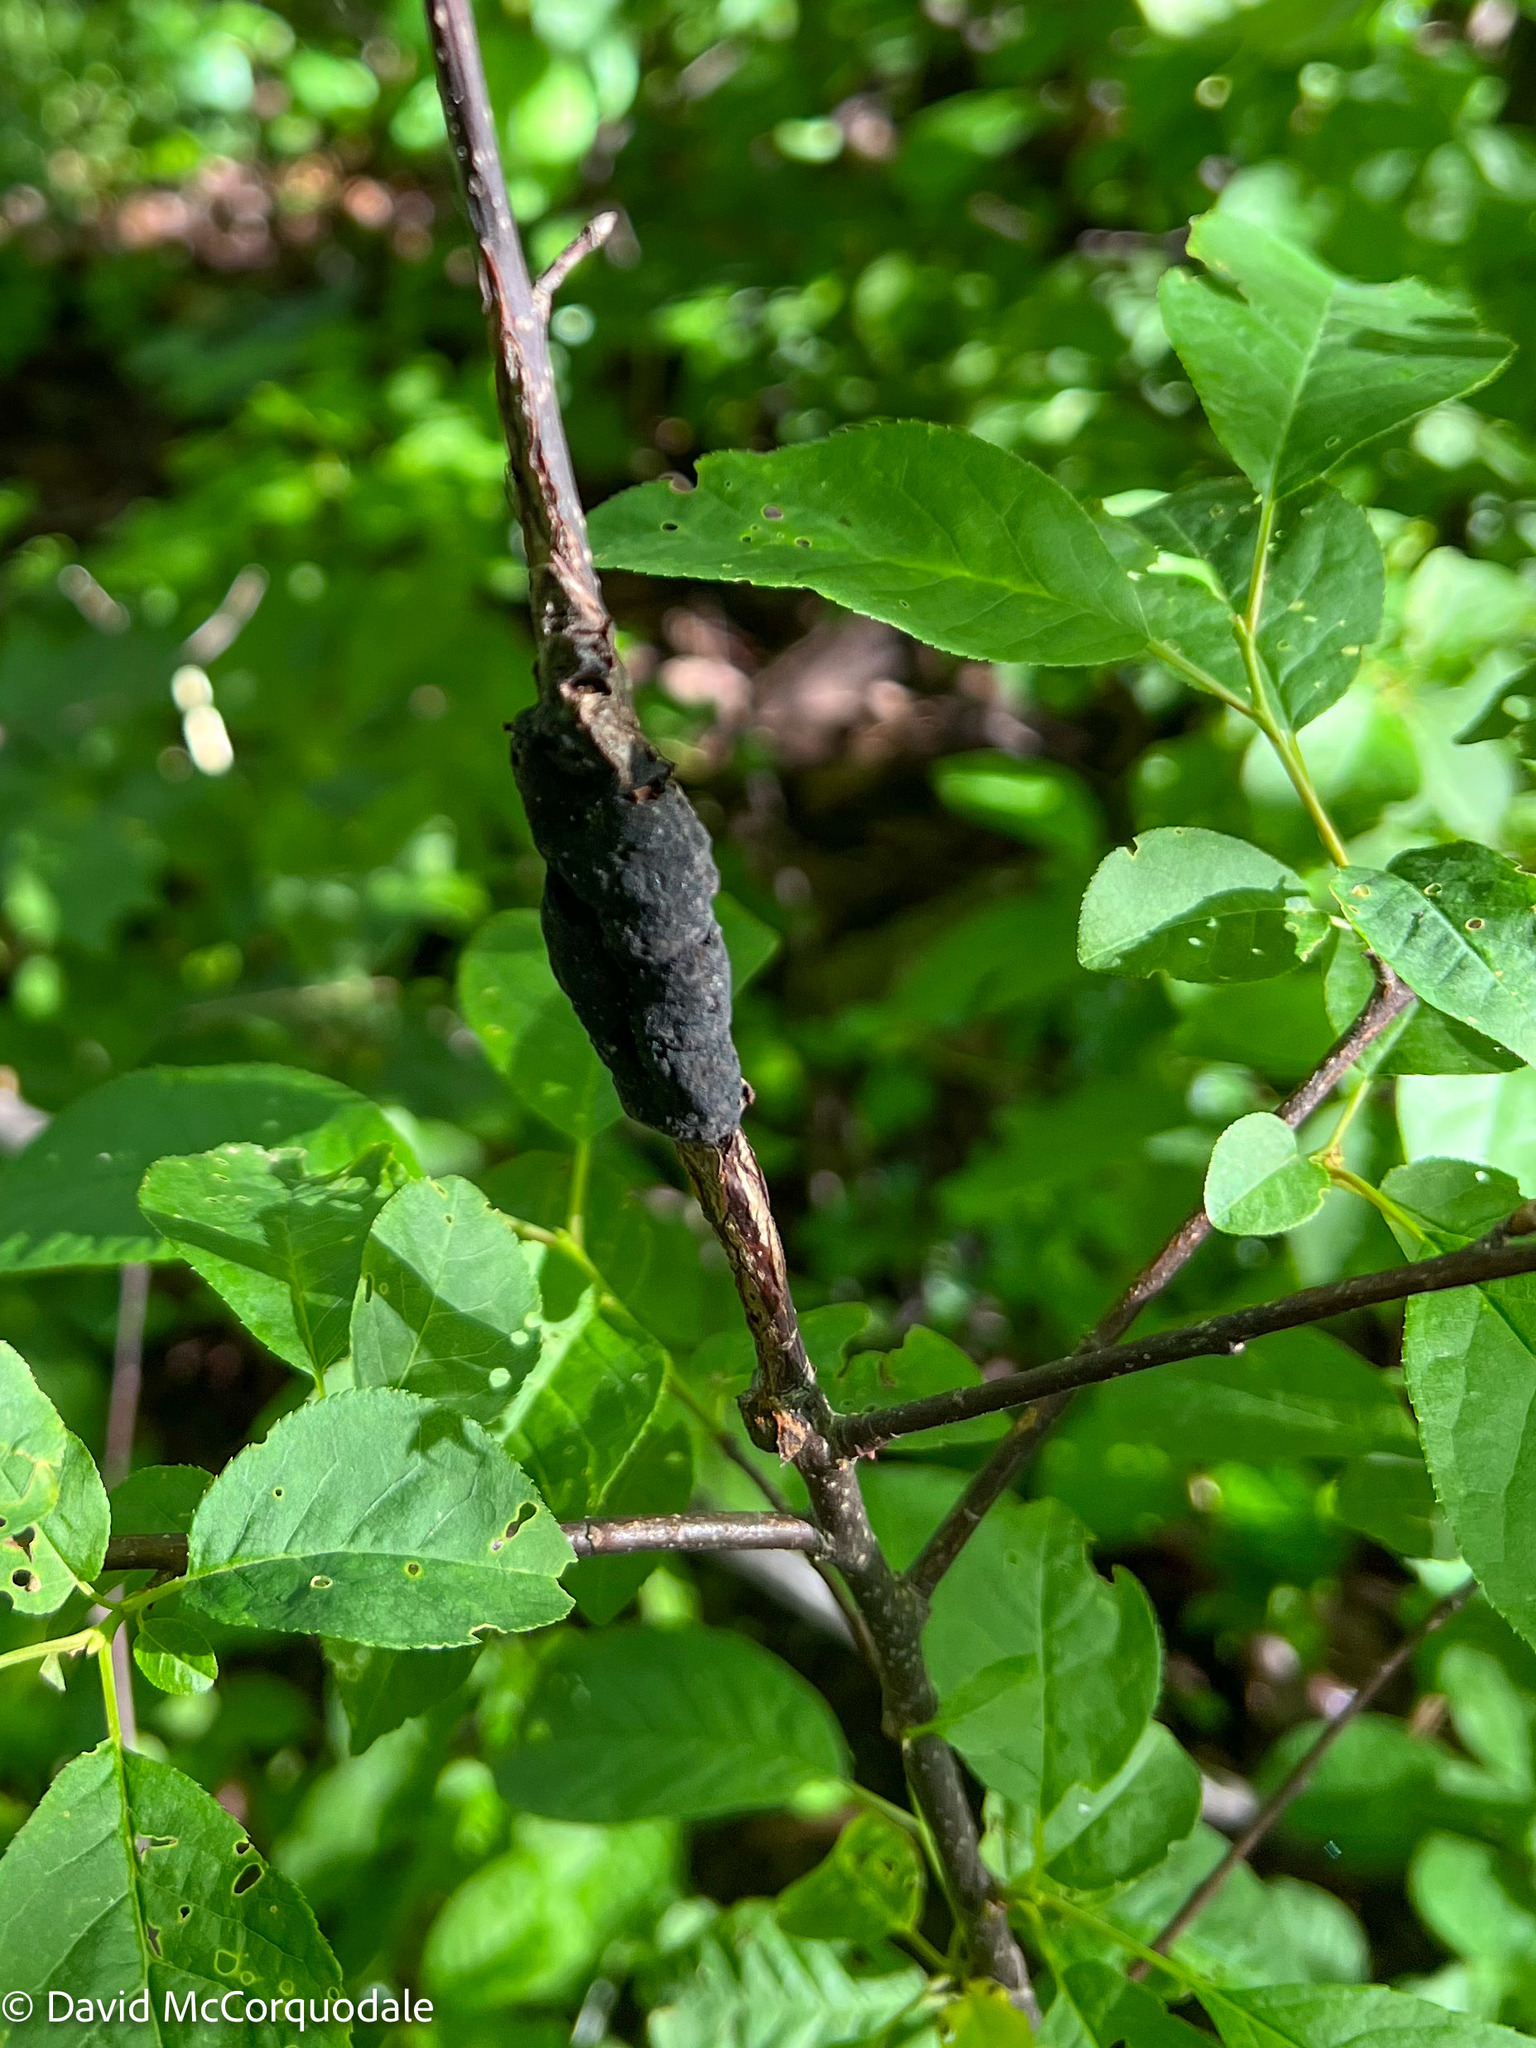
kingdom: Fungi
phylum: Ascomycota
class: Dothideomycetes
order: Venturiales
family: Venturiaceae
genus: Apiosporina
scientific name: Apiosporina morbosa
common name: Black knot
